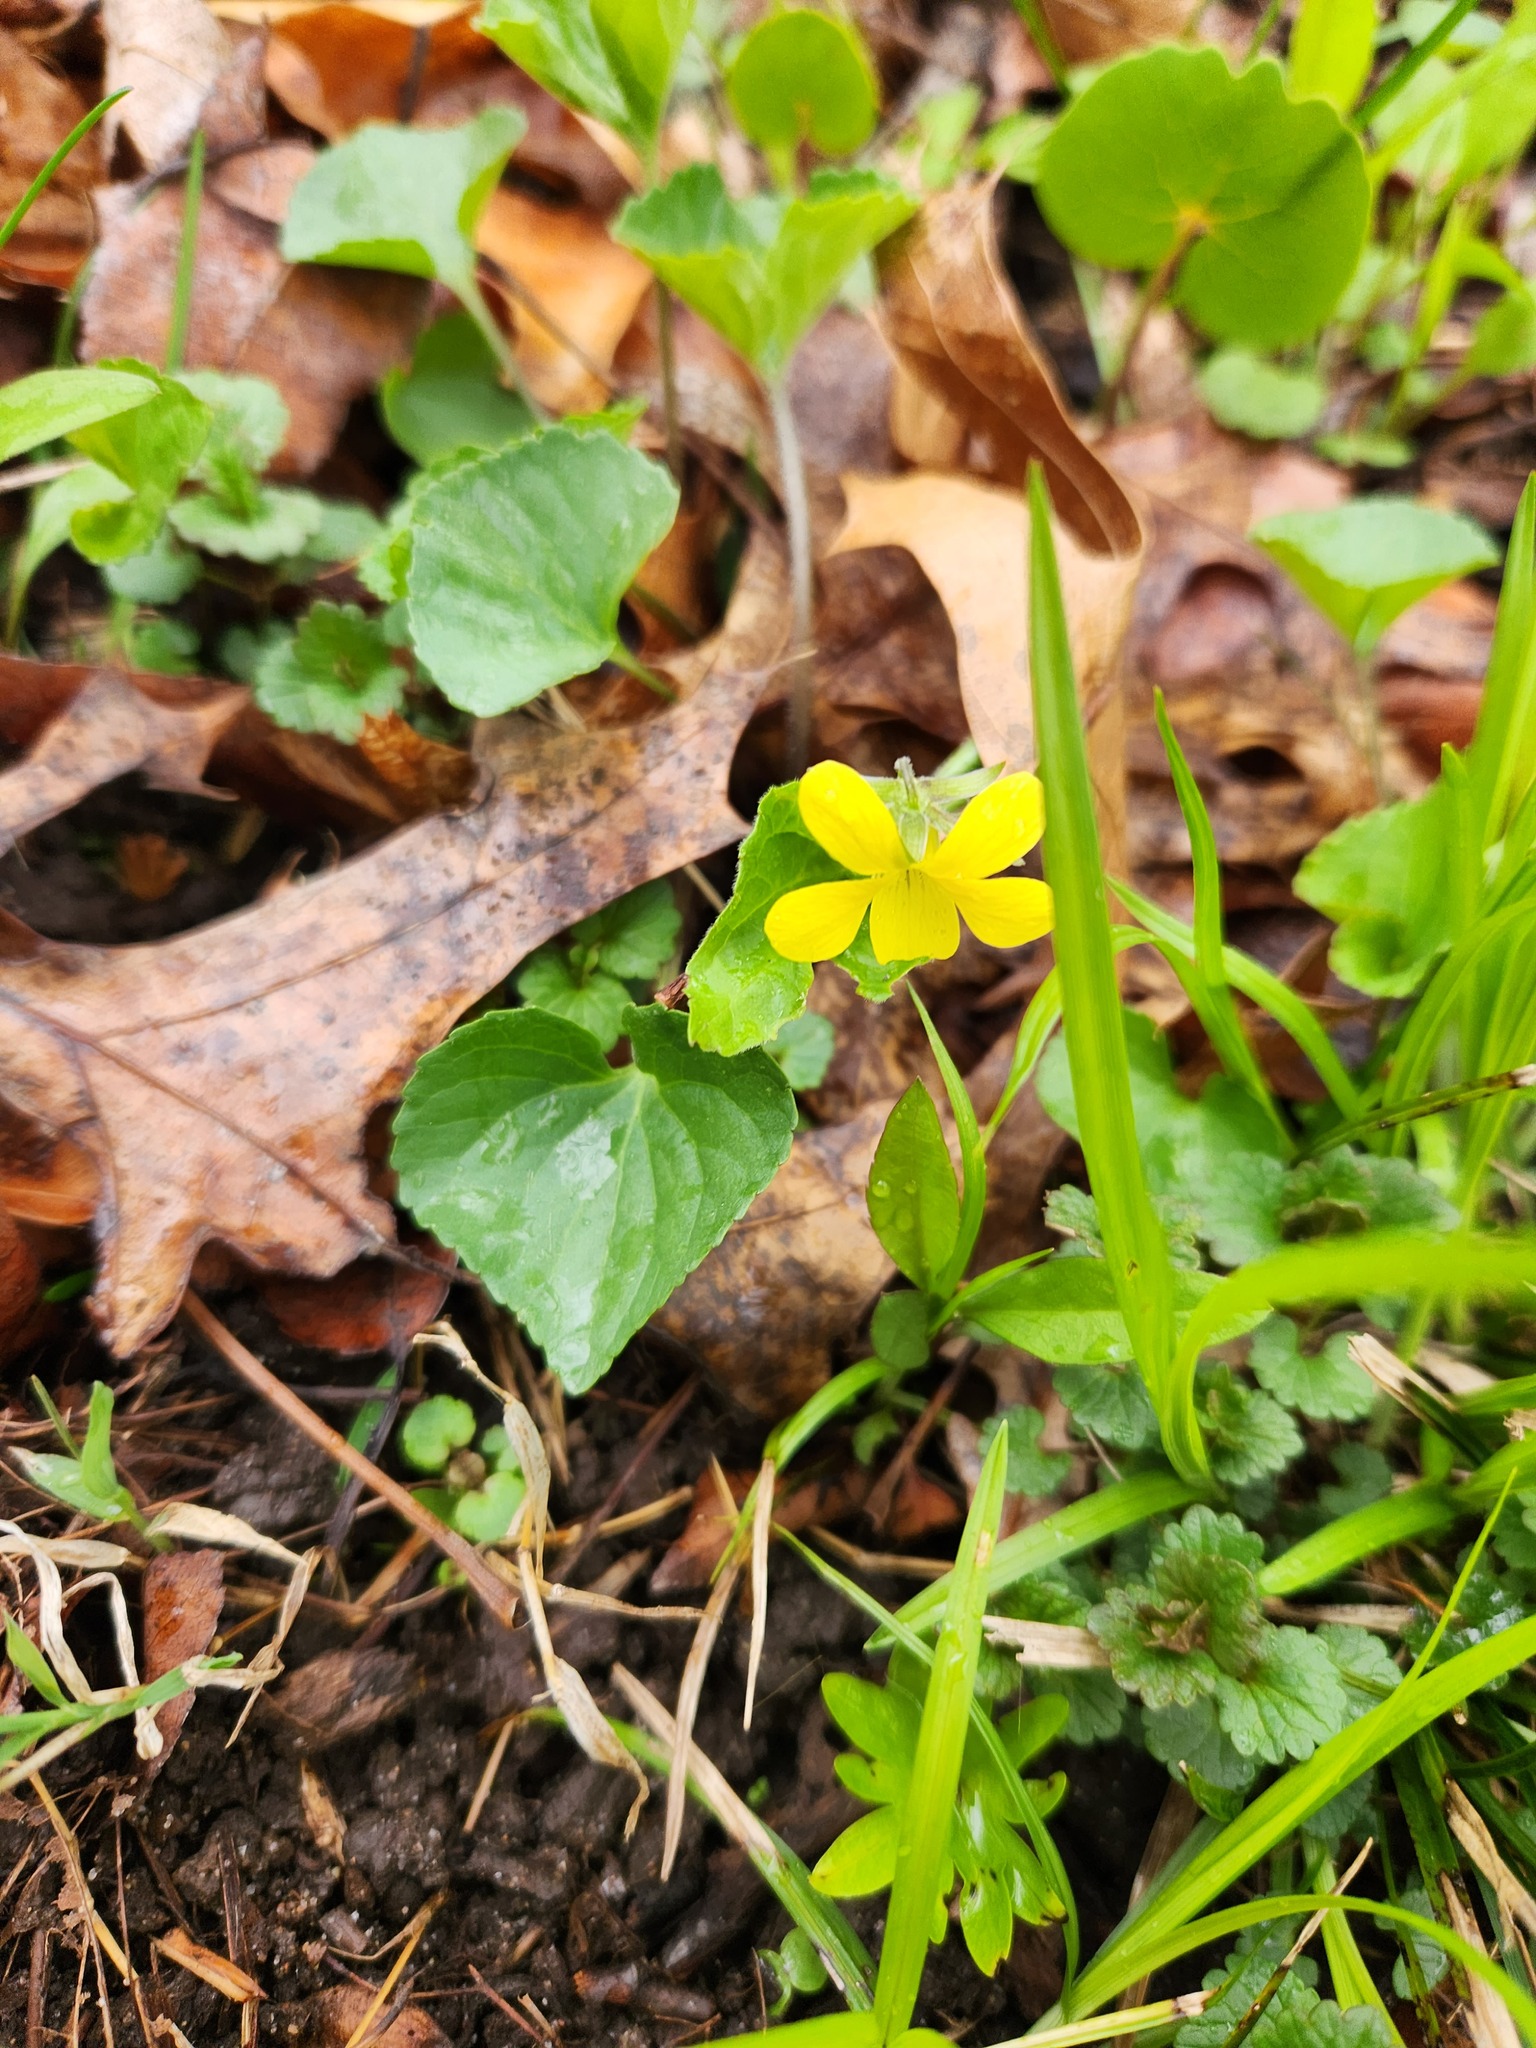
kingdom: Plantae
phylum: Tracheophyta
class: Magnoliopsida
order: Malpighiales
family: Violaceae
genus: Viola
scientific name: Viola eriocarpa
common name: Smooth yellow violet
